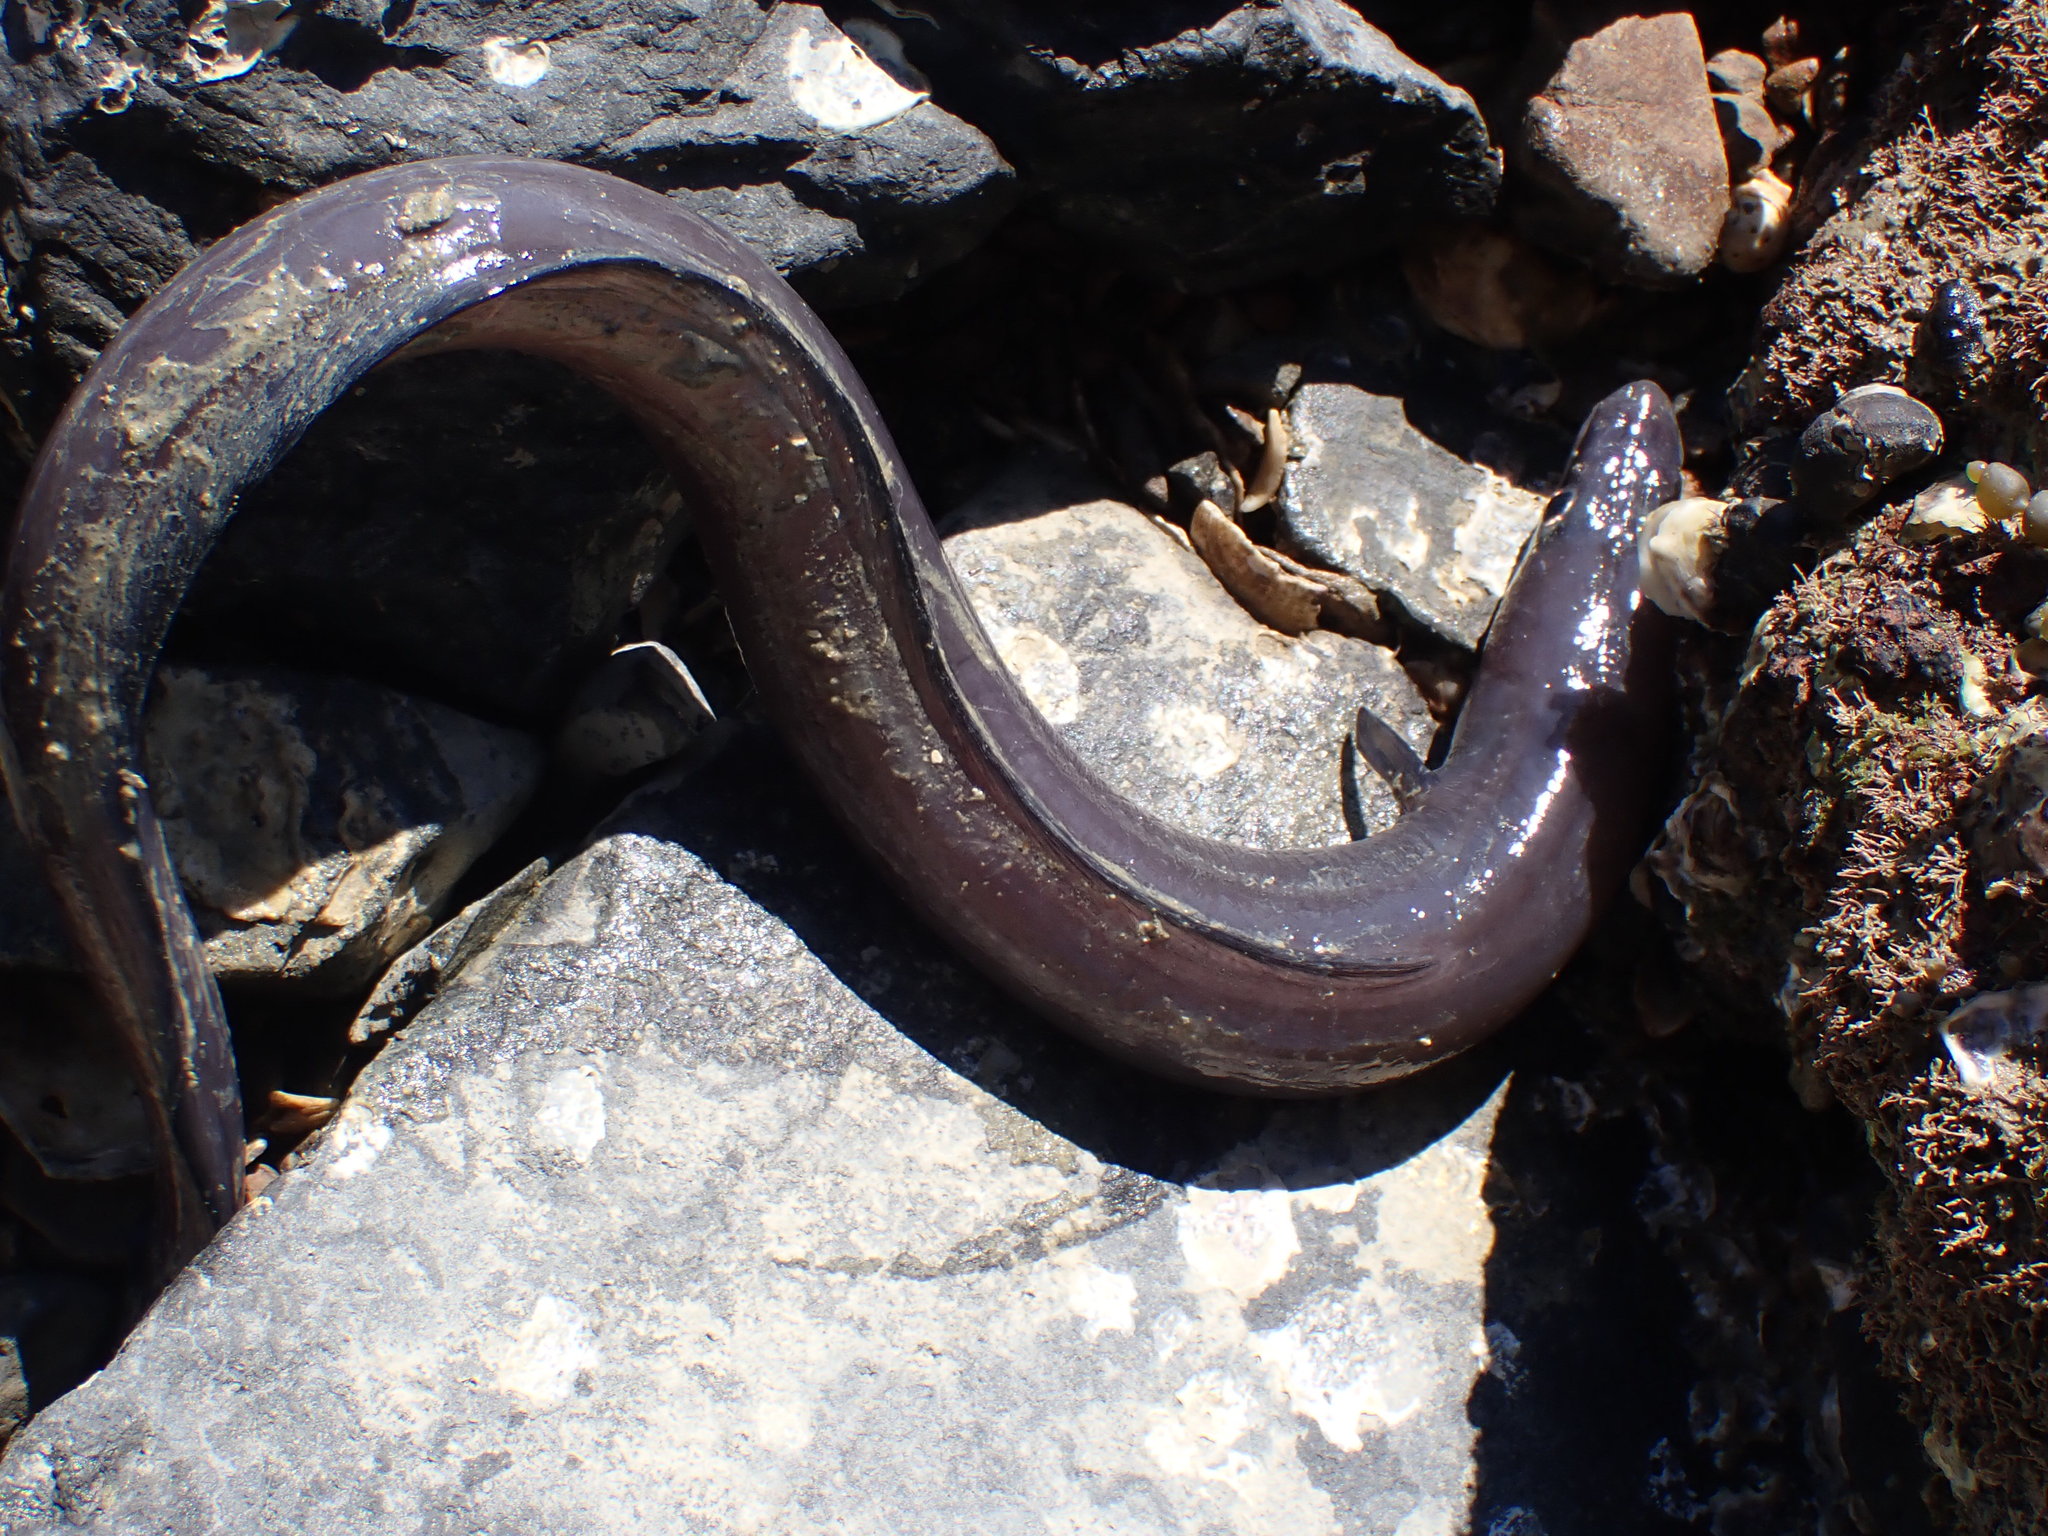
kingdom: Animalia
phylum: Chordata
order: Anguilliformes
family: Congridae
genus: Conger
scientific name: Conger monganius
